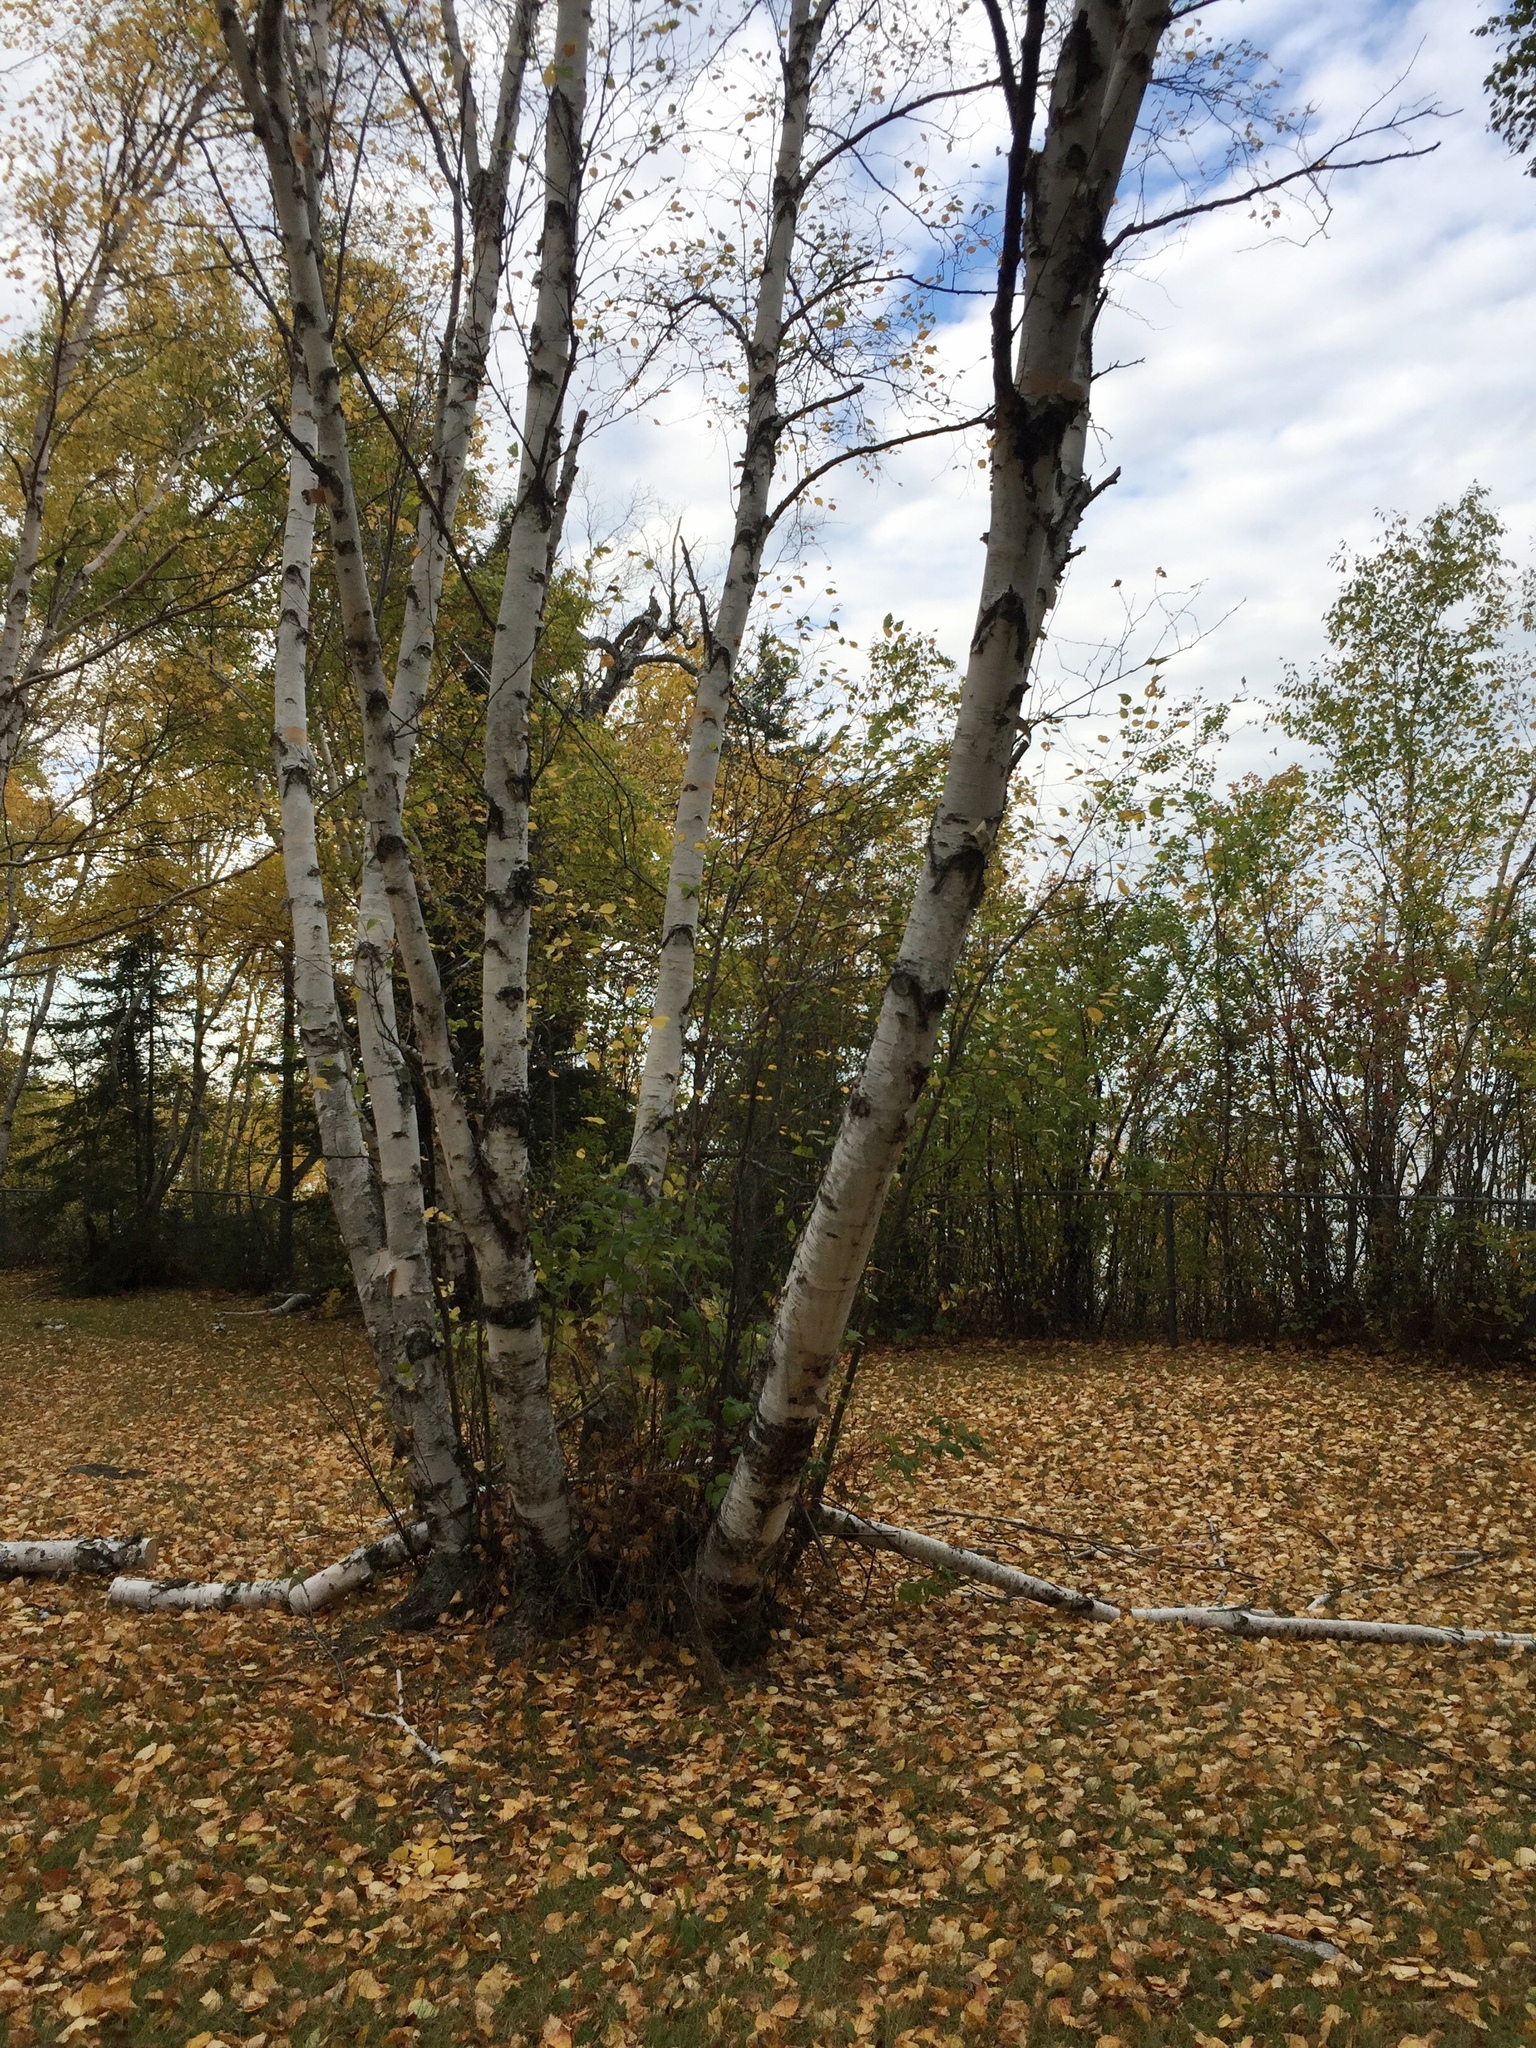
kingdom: Plantae
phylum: Tracheophyta
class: Magnoliopsida
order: Fagales
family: Betulaceae
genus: Betula
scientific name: Betula papyrifera
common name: Paper birch
